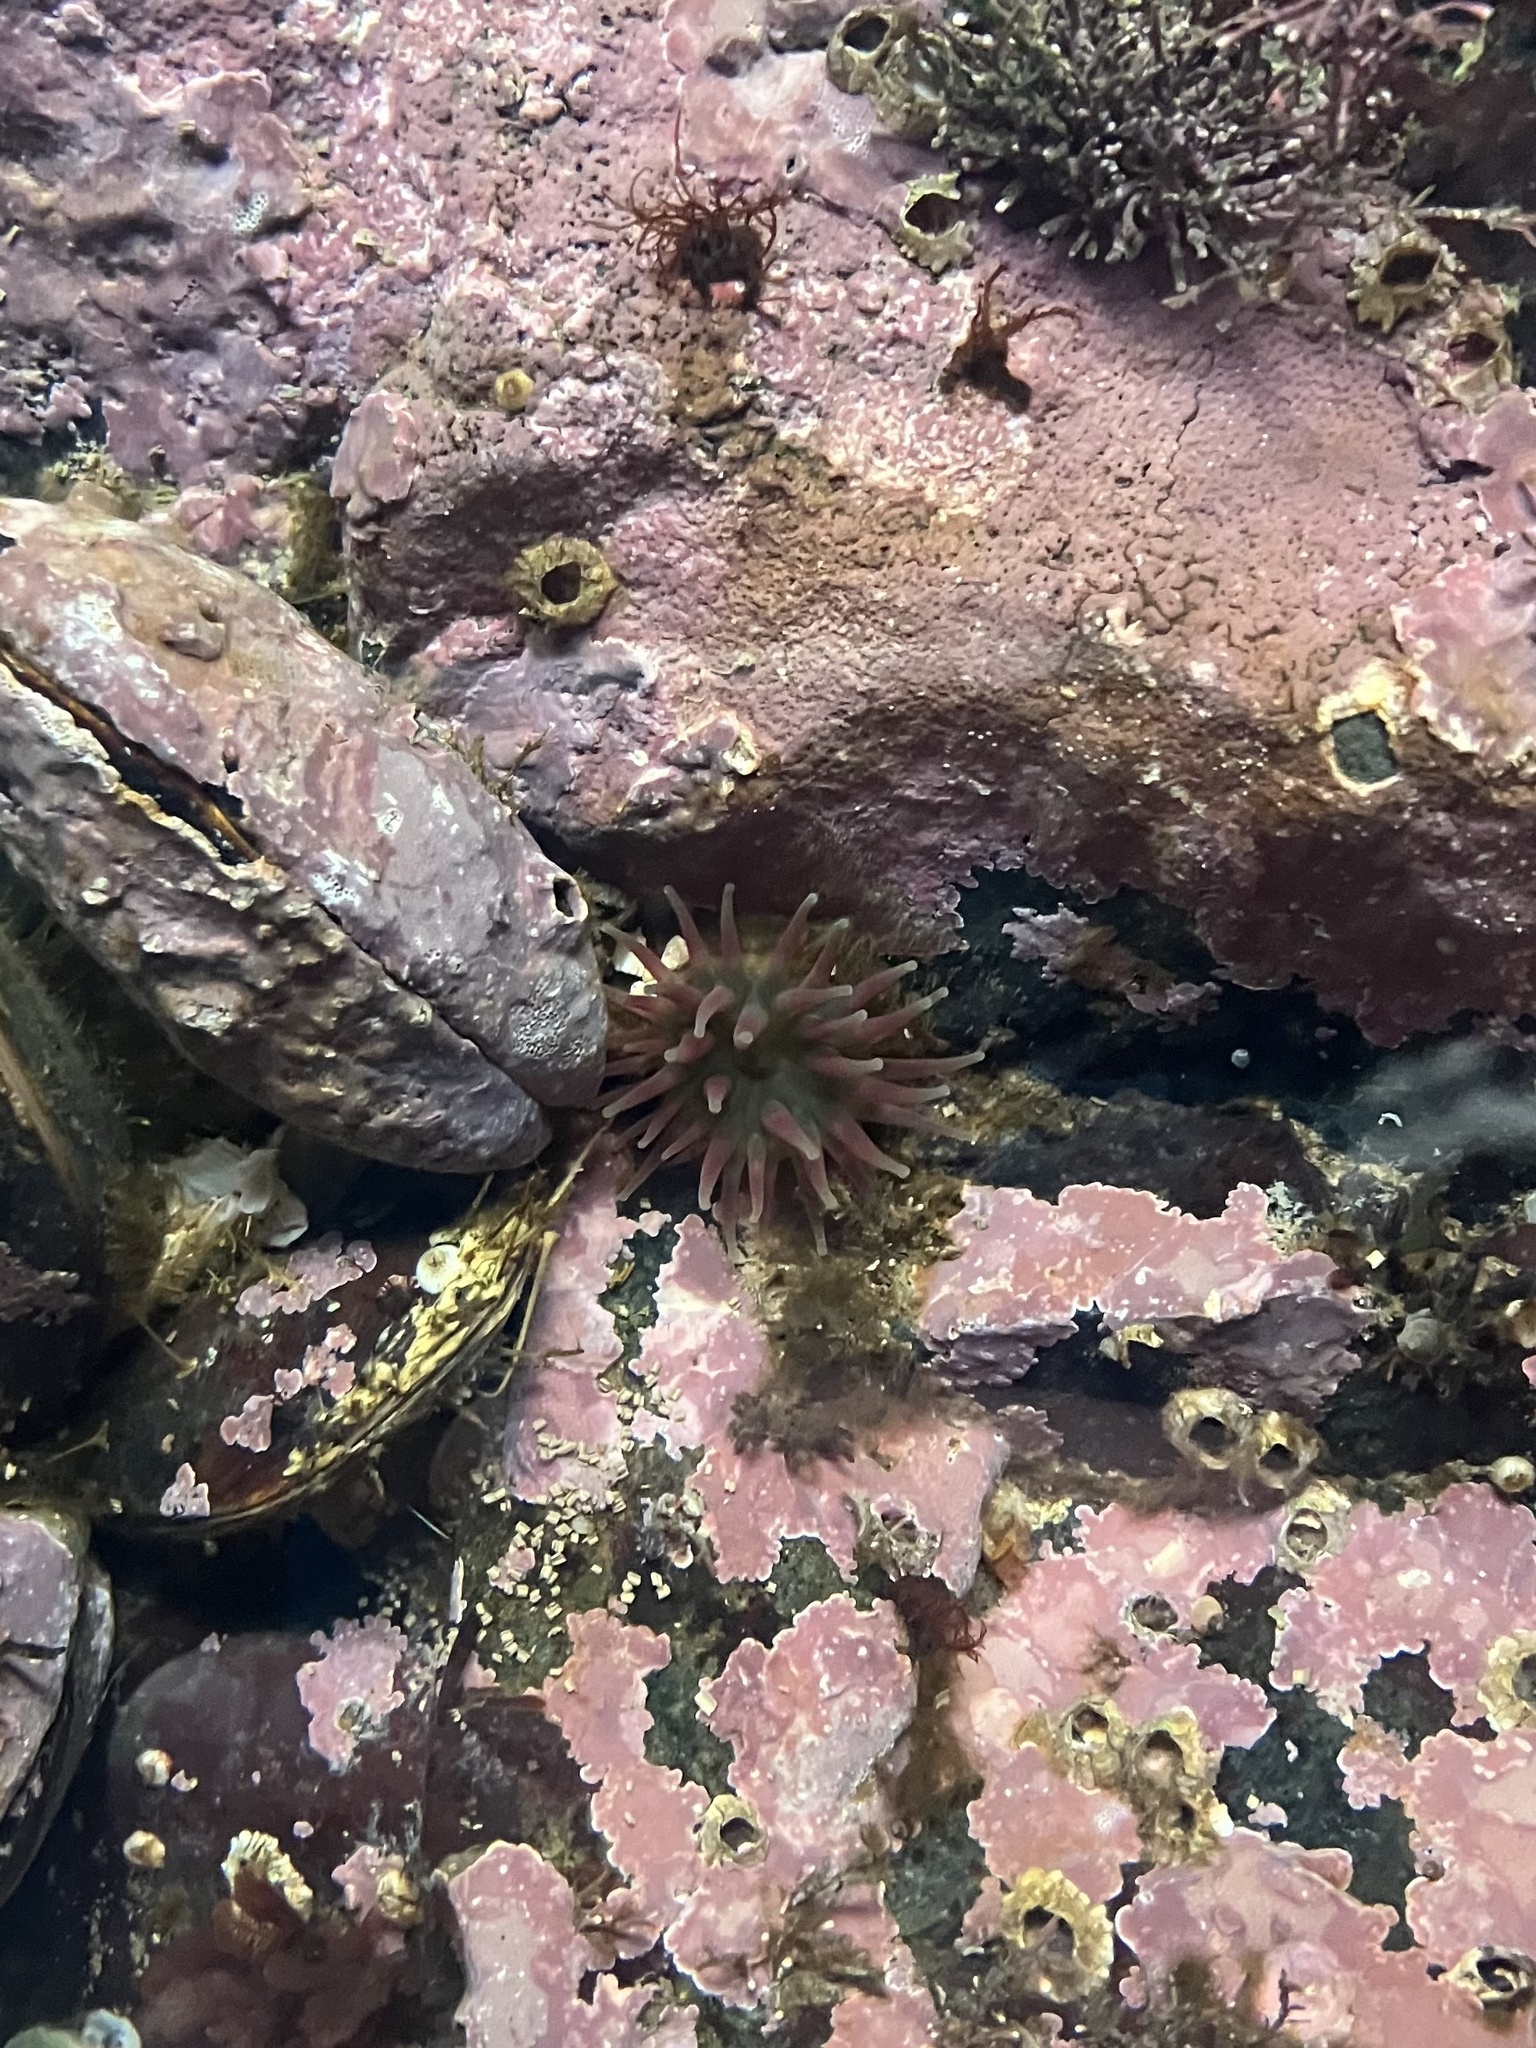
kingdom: Animalia
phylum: Cnidaria
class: Anthozoa
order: Actiniaria
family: Actiniidae
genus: Urticina
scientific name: Urticina crassicornis
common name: Mottled anemone
